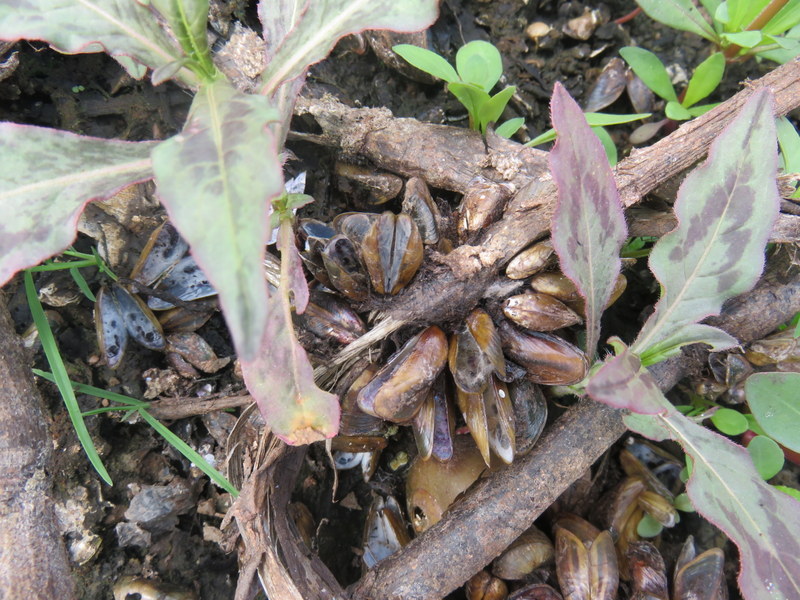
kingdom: Animalia
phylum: Mollusca
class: Bivalvia
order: Mytilida
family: Mytilidae
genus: Limnoperna
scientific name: Limnoperna siamensis
